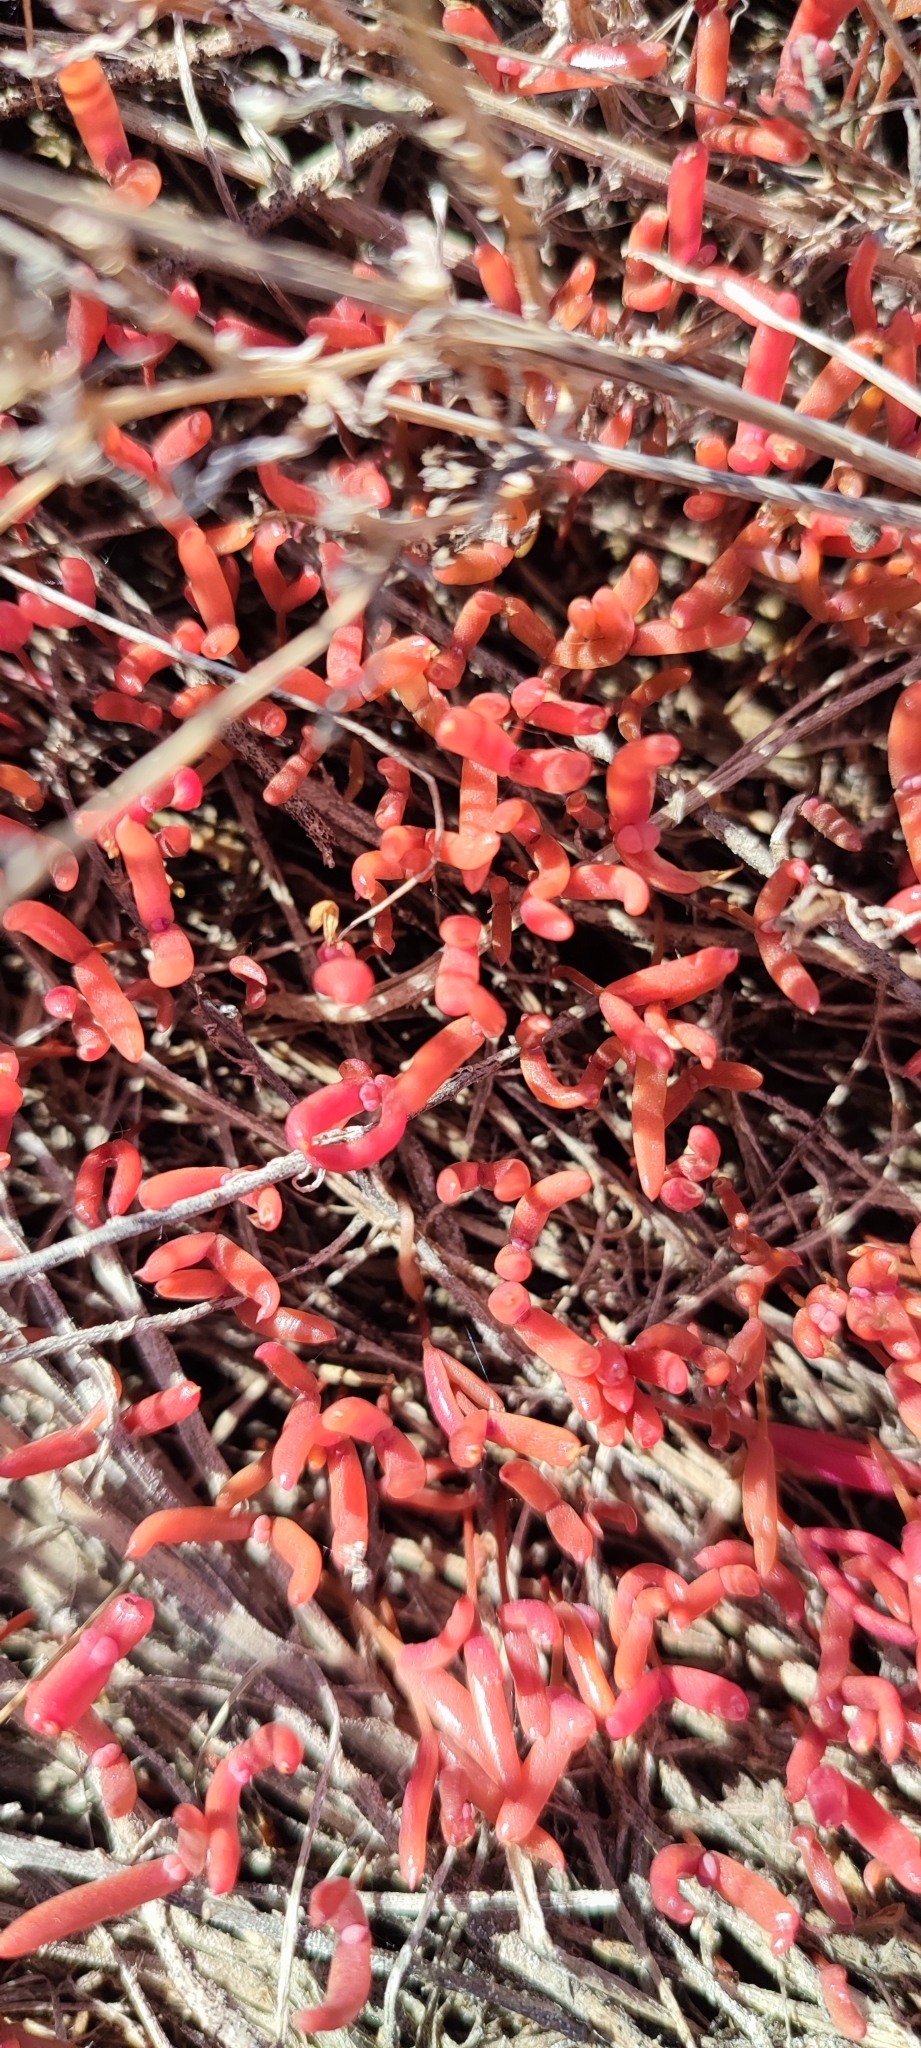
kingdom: Plantae
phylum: Tracheophyta
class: Magnoliopsida
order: Caryophyllales
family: Amaranthaceae
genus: Salicornia
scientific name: Salicornia perennans
